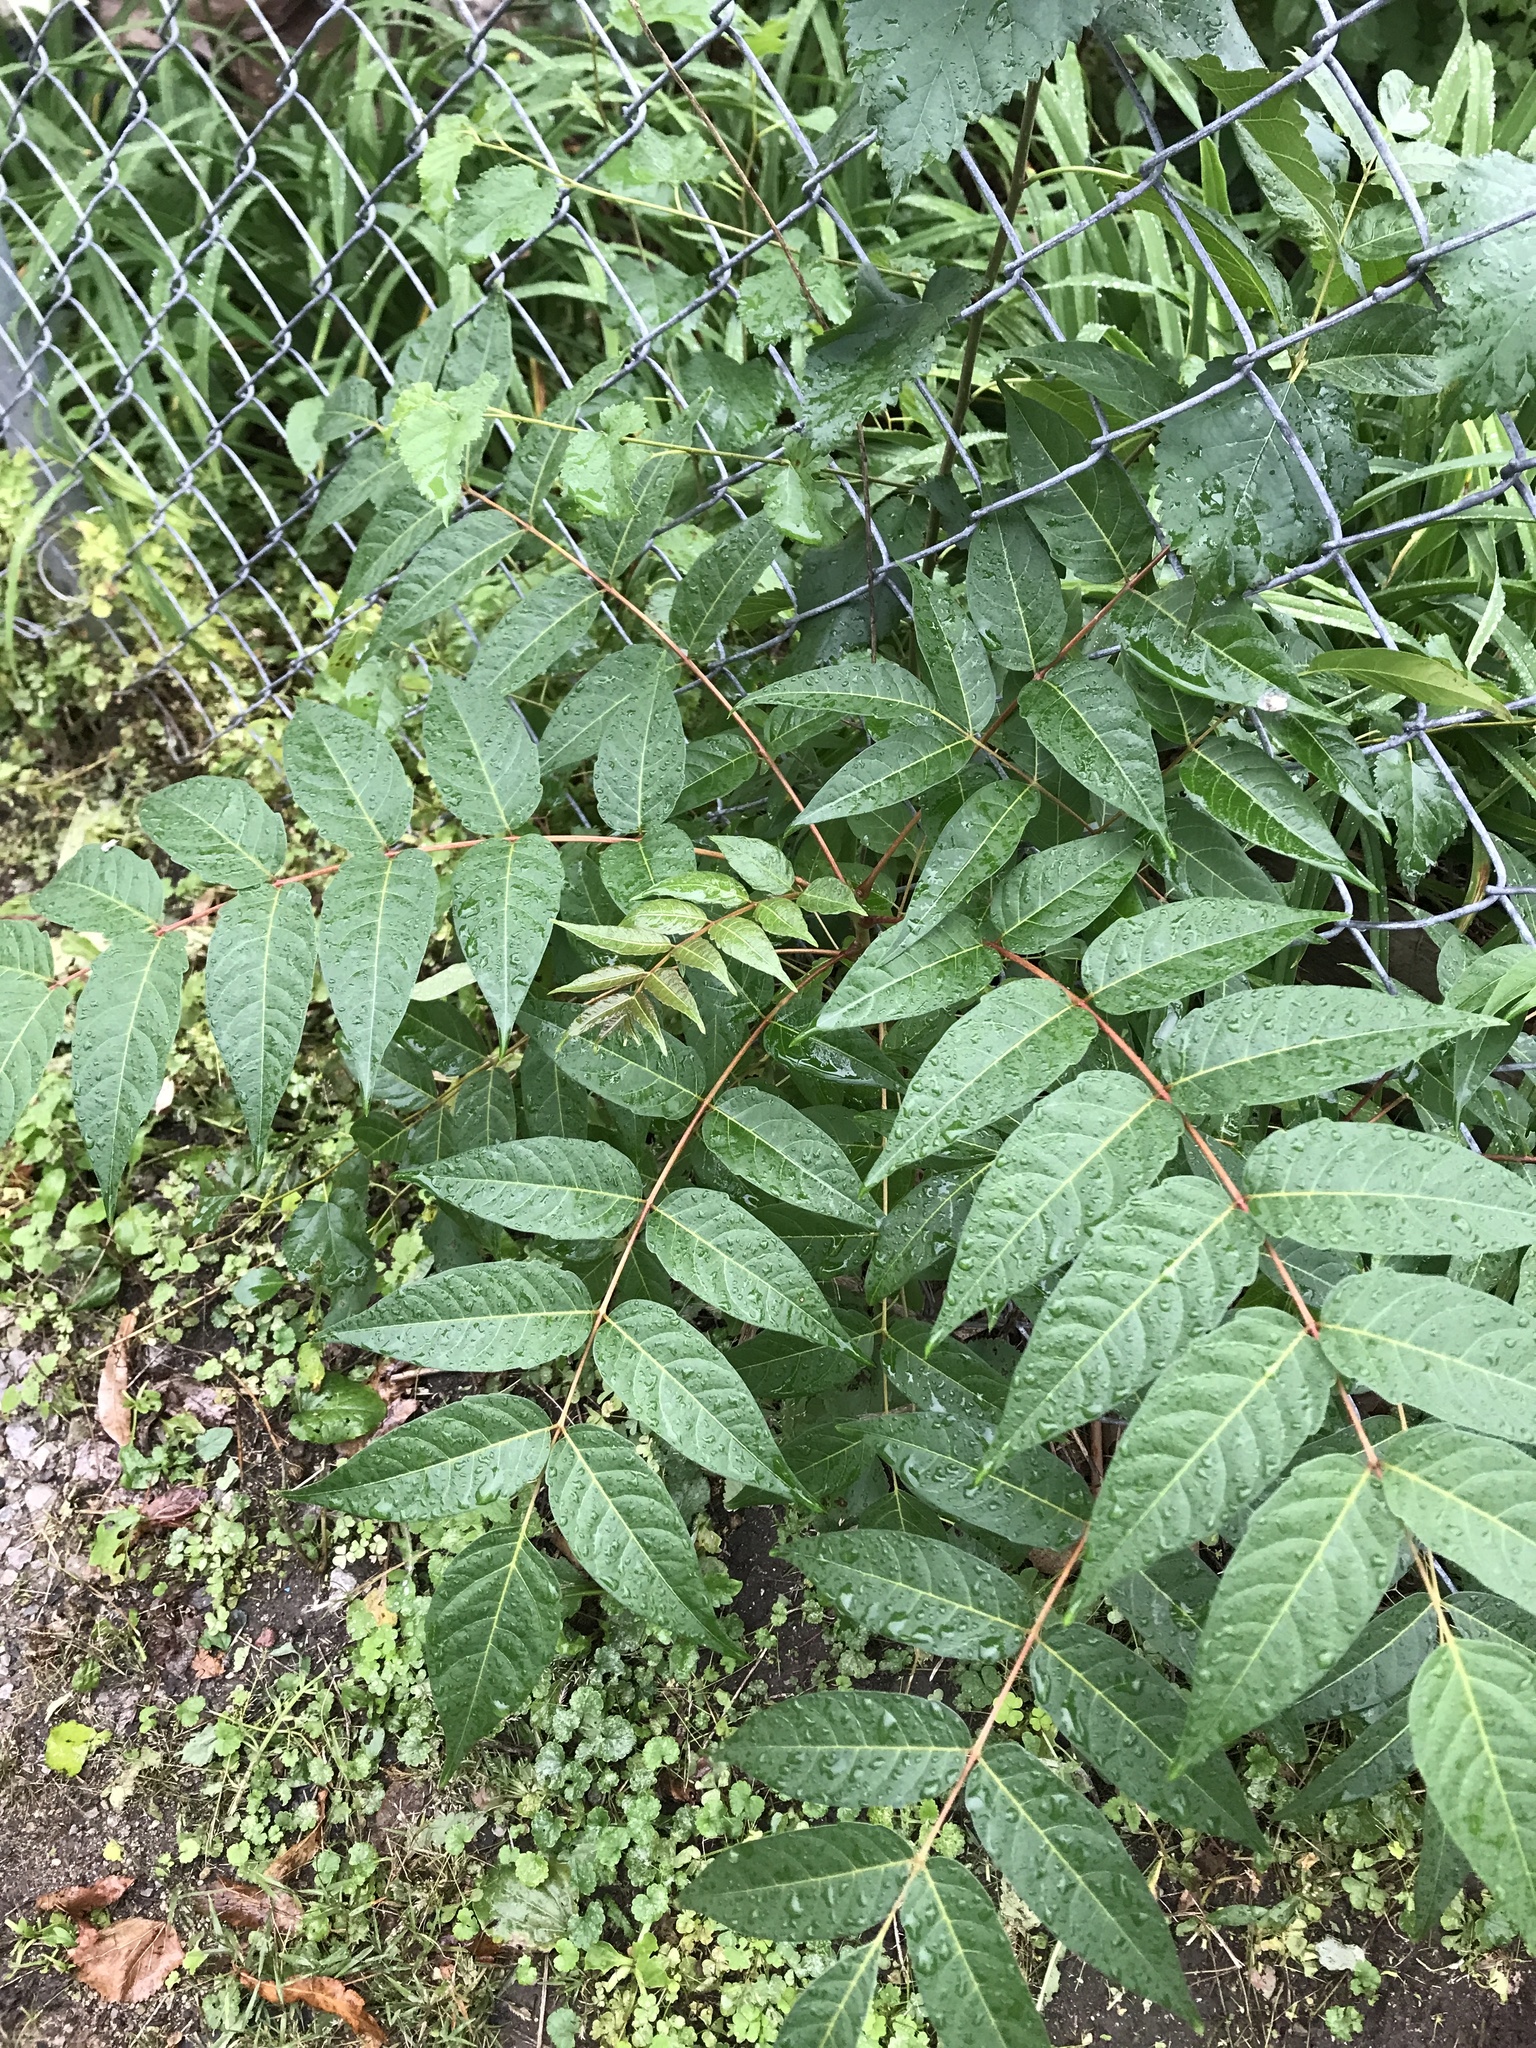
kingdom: Plantae
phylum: Tracheophyta
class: Magnoliopsida
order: Sapindales
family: Simaroubaceae
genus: Ailanthus
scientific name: Ailanthus altissima
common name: Tree-of-heaven
